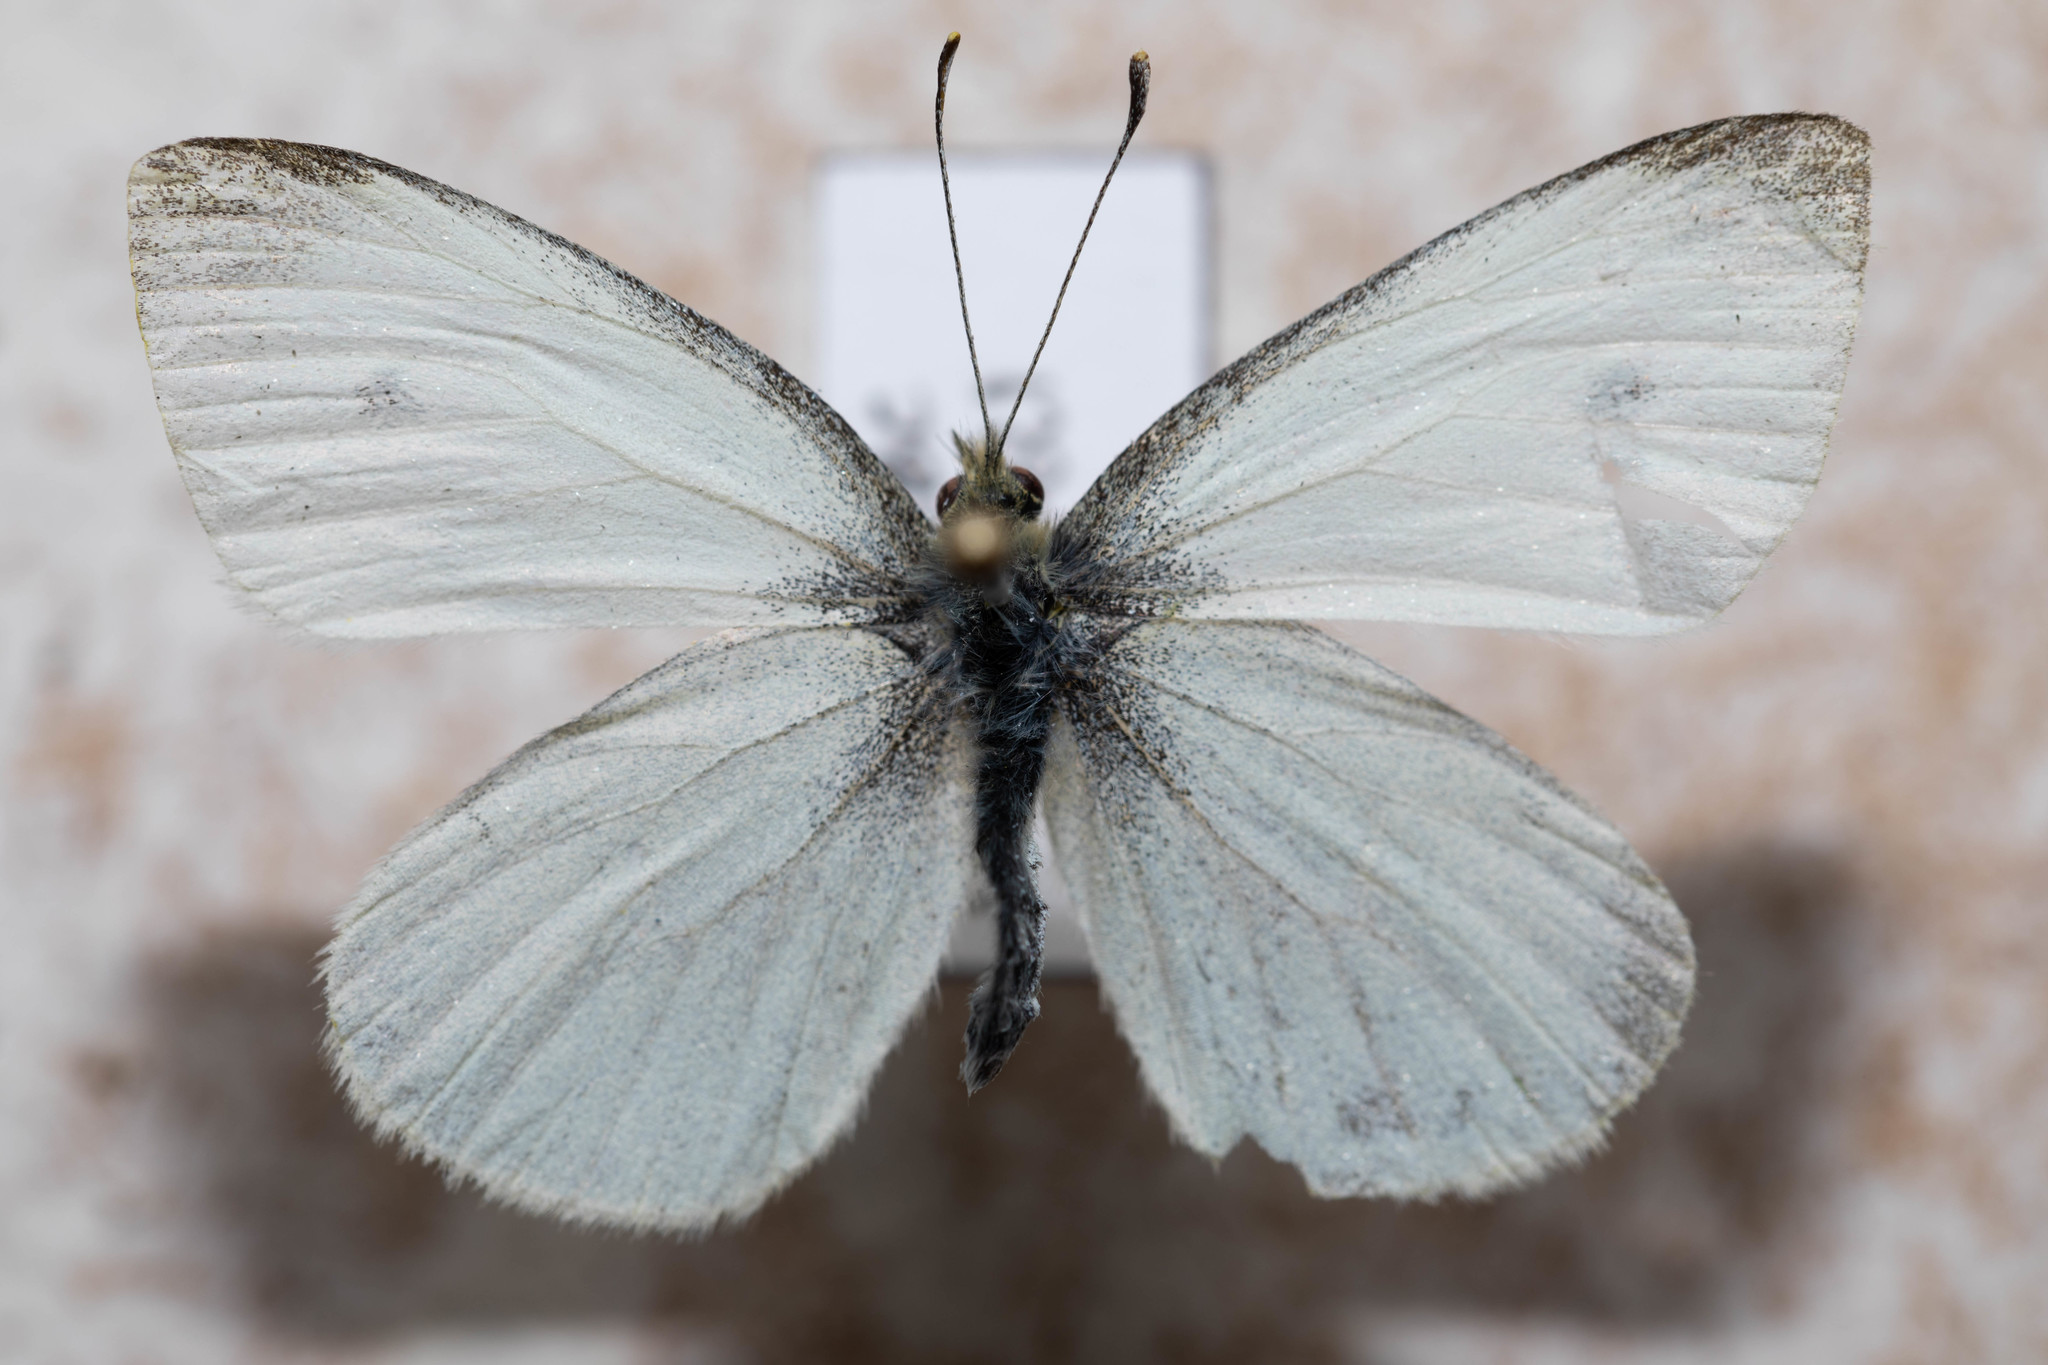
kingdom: Animalia
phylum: Arthropoda
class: Insecta
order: Lepidoptera
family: Pieridae
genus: Pieris
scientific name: Pieris rapae
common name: Small white
